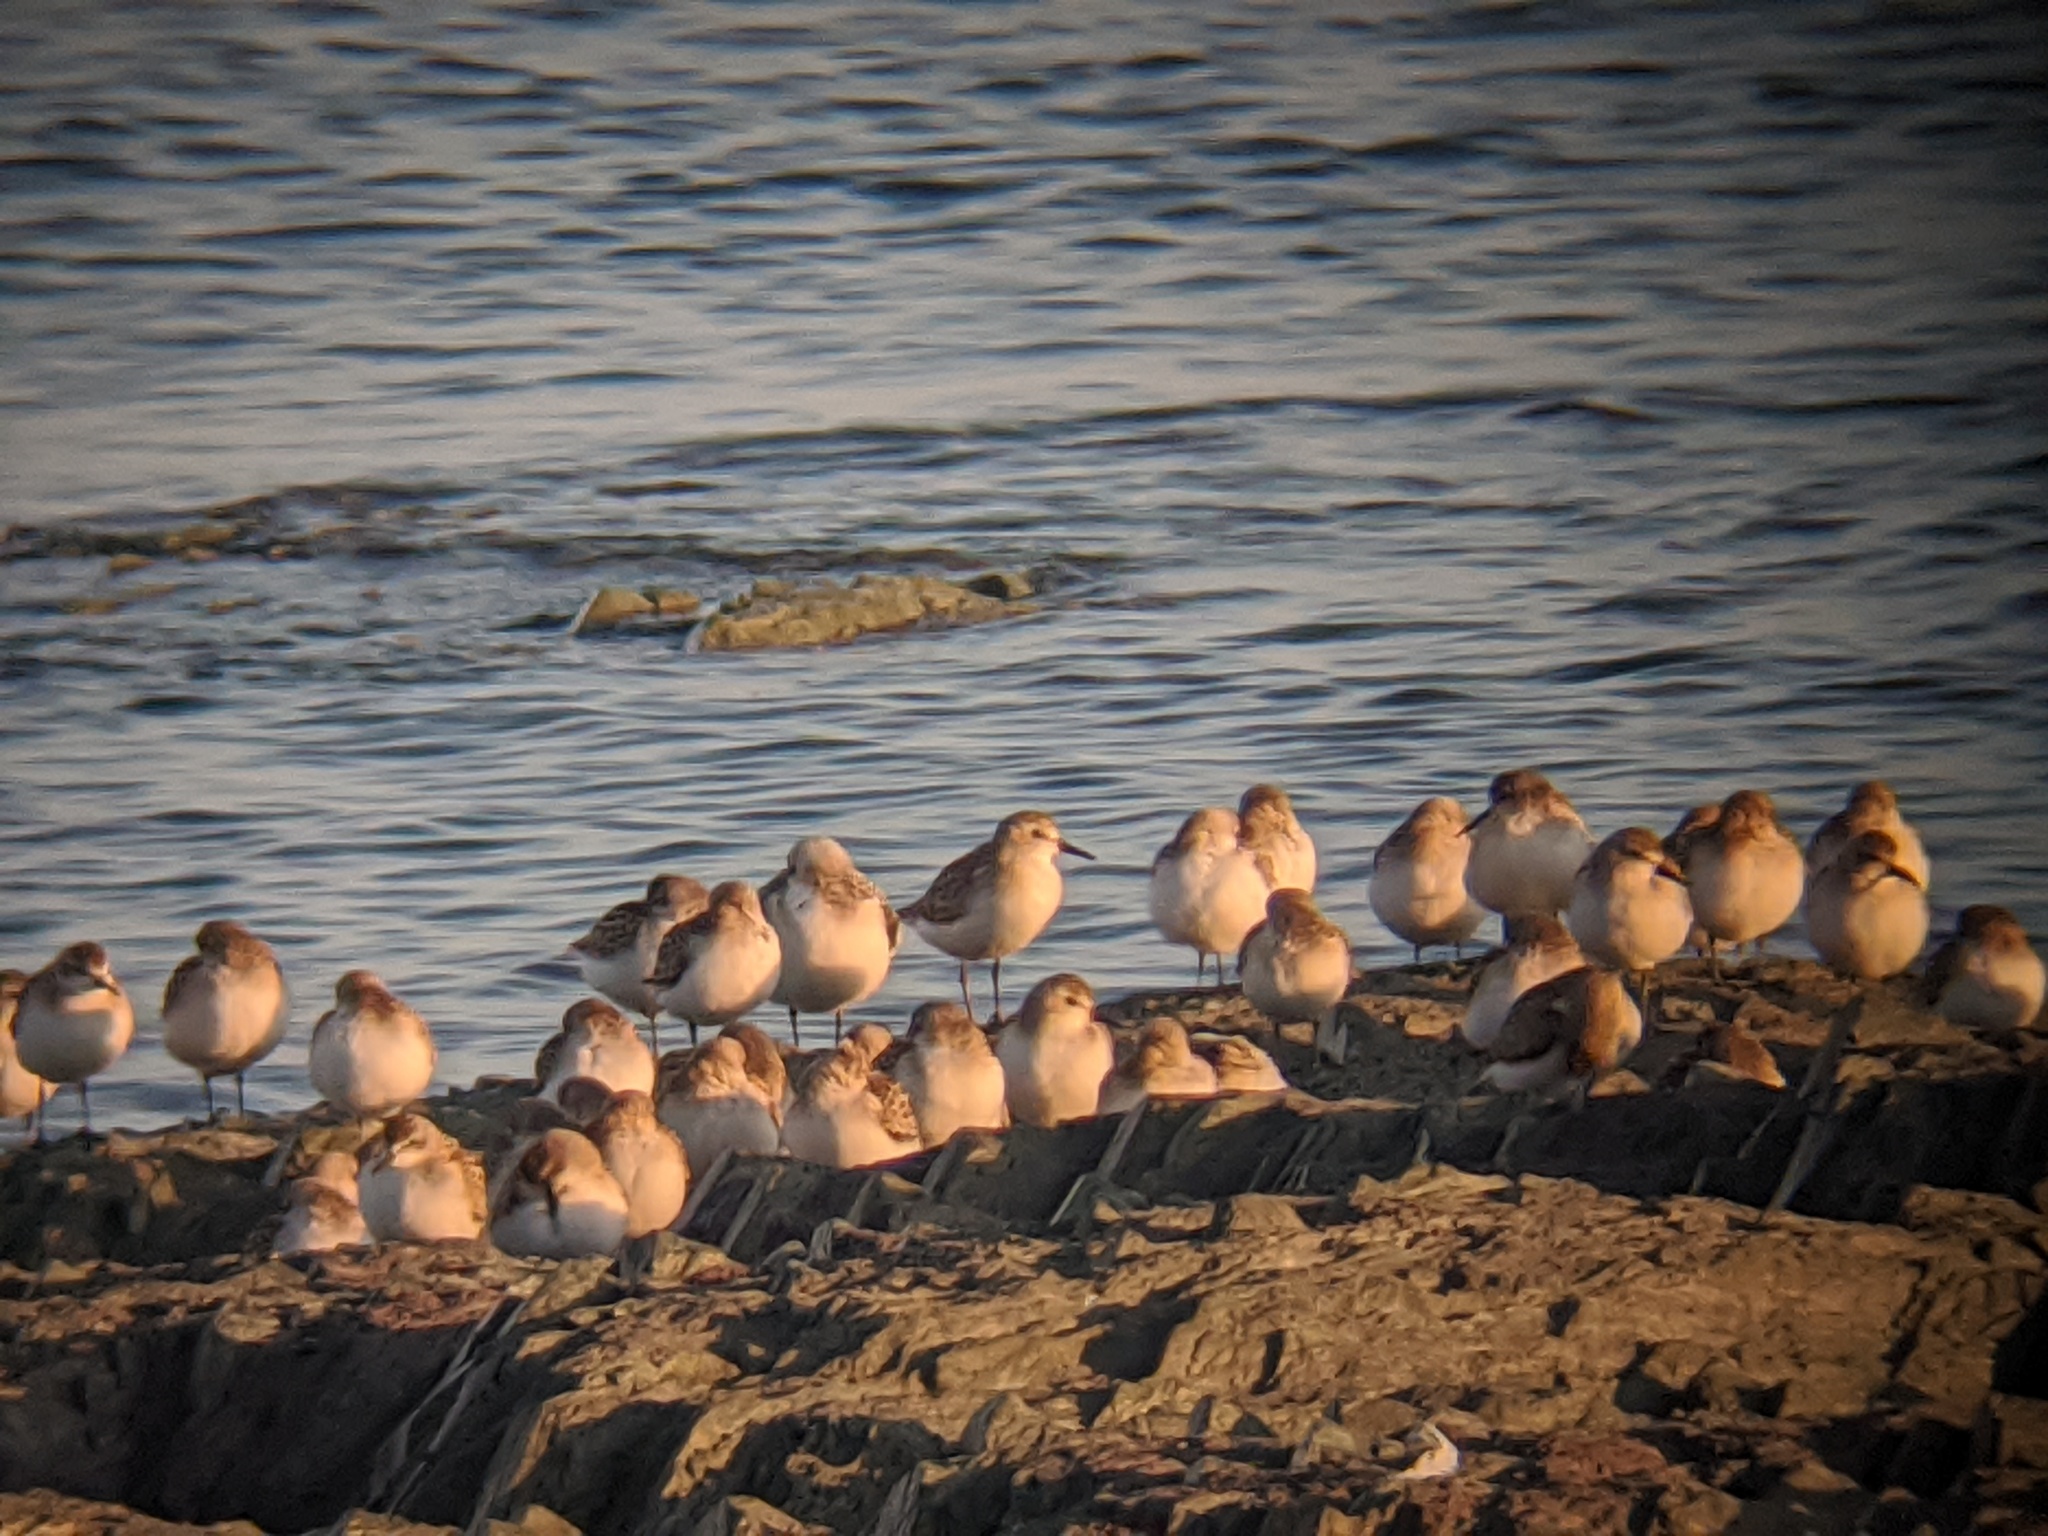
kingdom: Animalia
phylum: Chordata
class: Aves
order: Charadriiformes
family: Scolopacidae
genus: Calidris
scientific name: Calidris alba
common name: Sanderling
